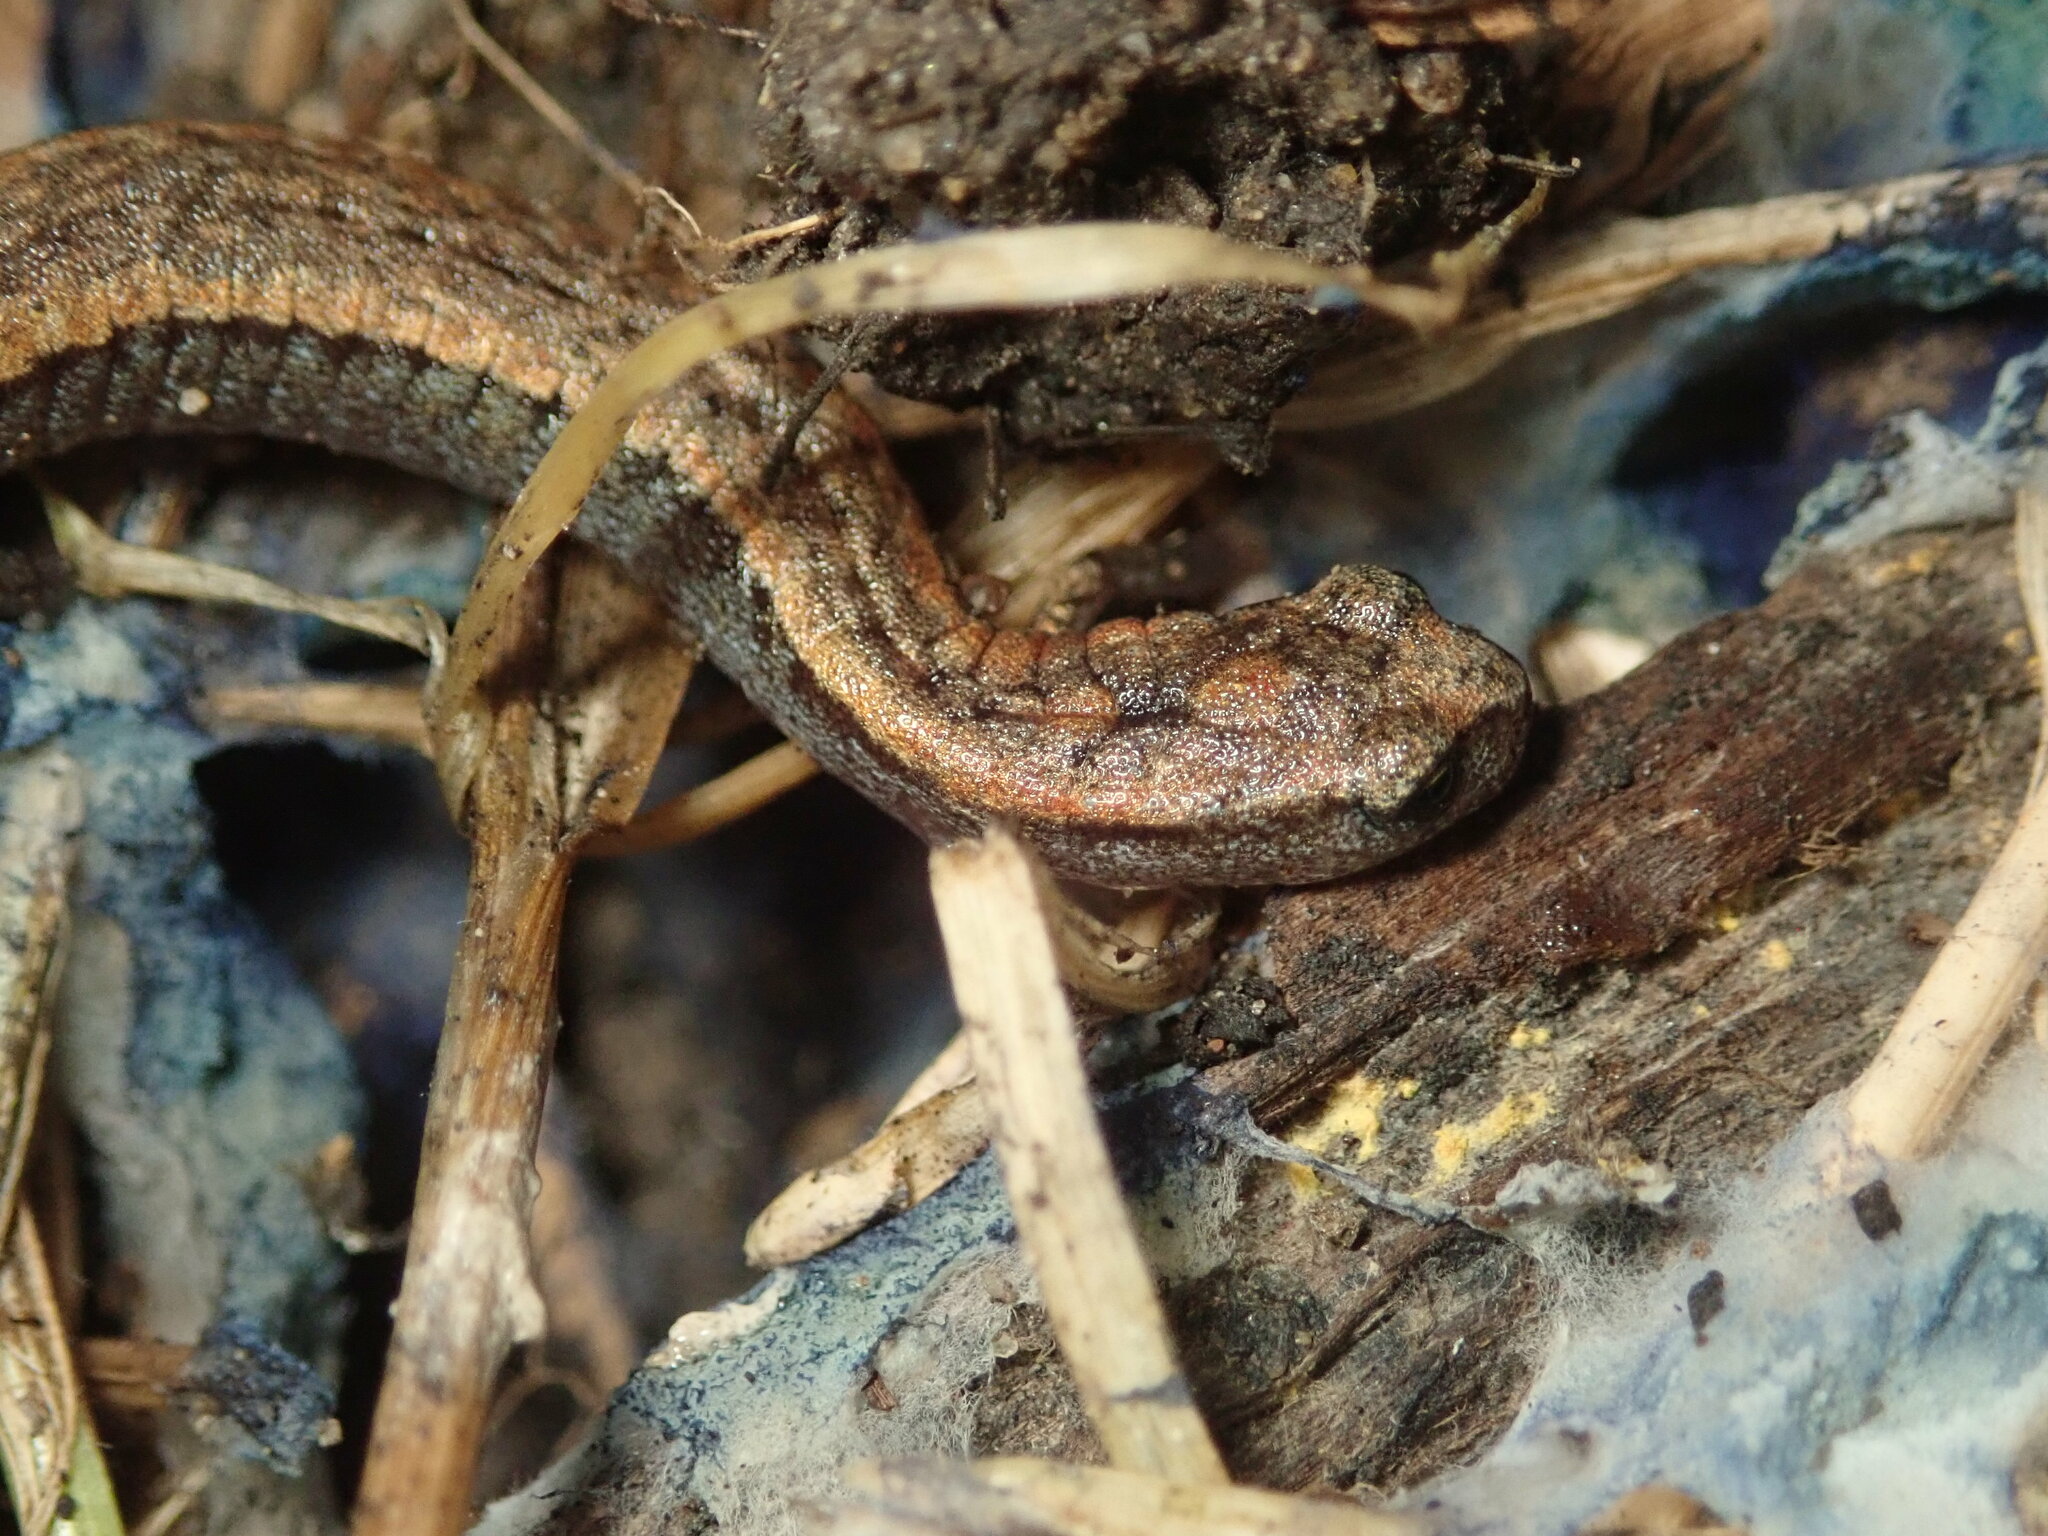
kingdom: Animalia
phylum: Chordata
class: Amphibia
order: Caudata
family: Plethodontidae
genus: Batrachoseps
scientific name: Batrachoseps attenuatus
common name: California slender salamander
